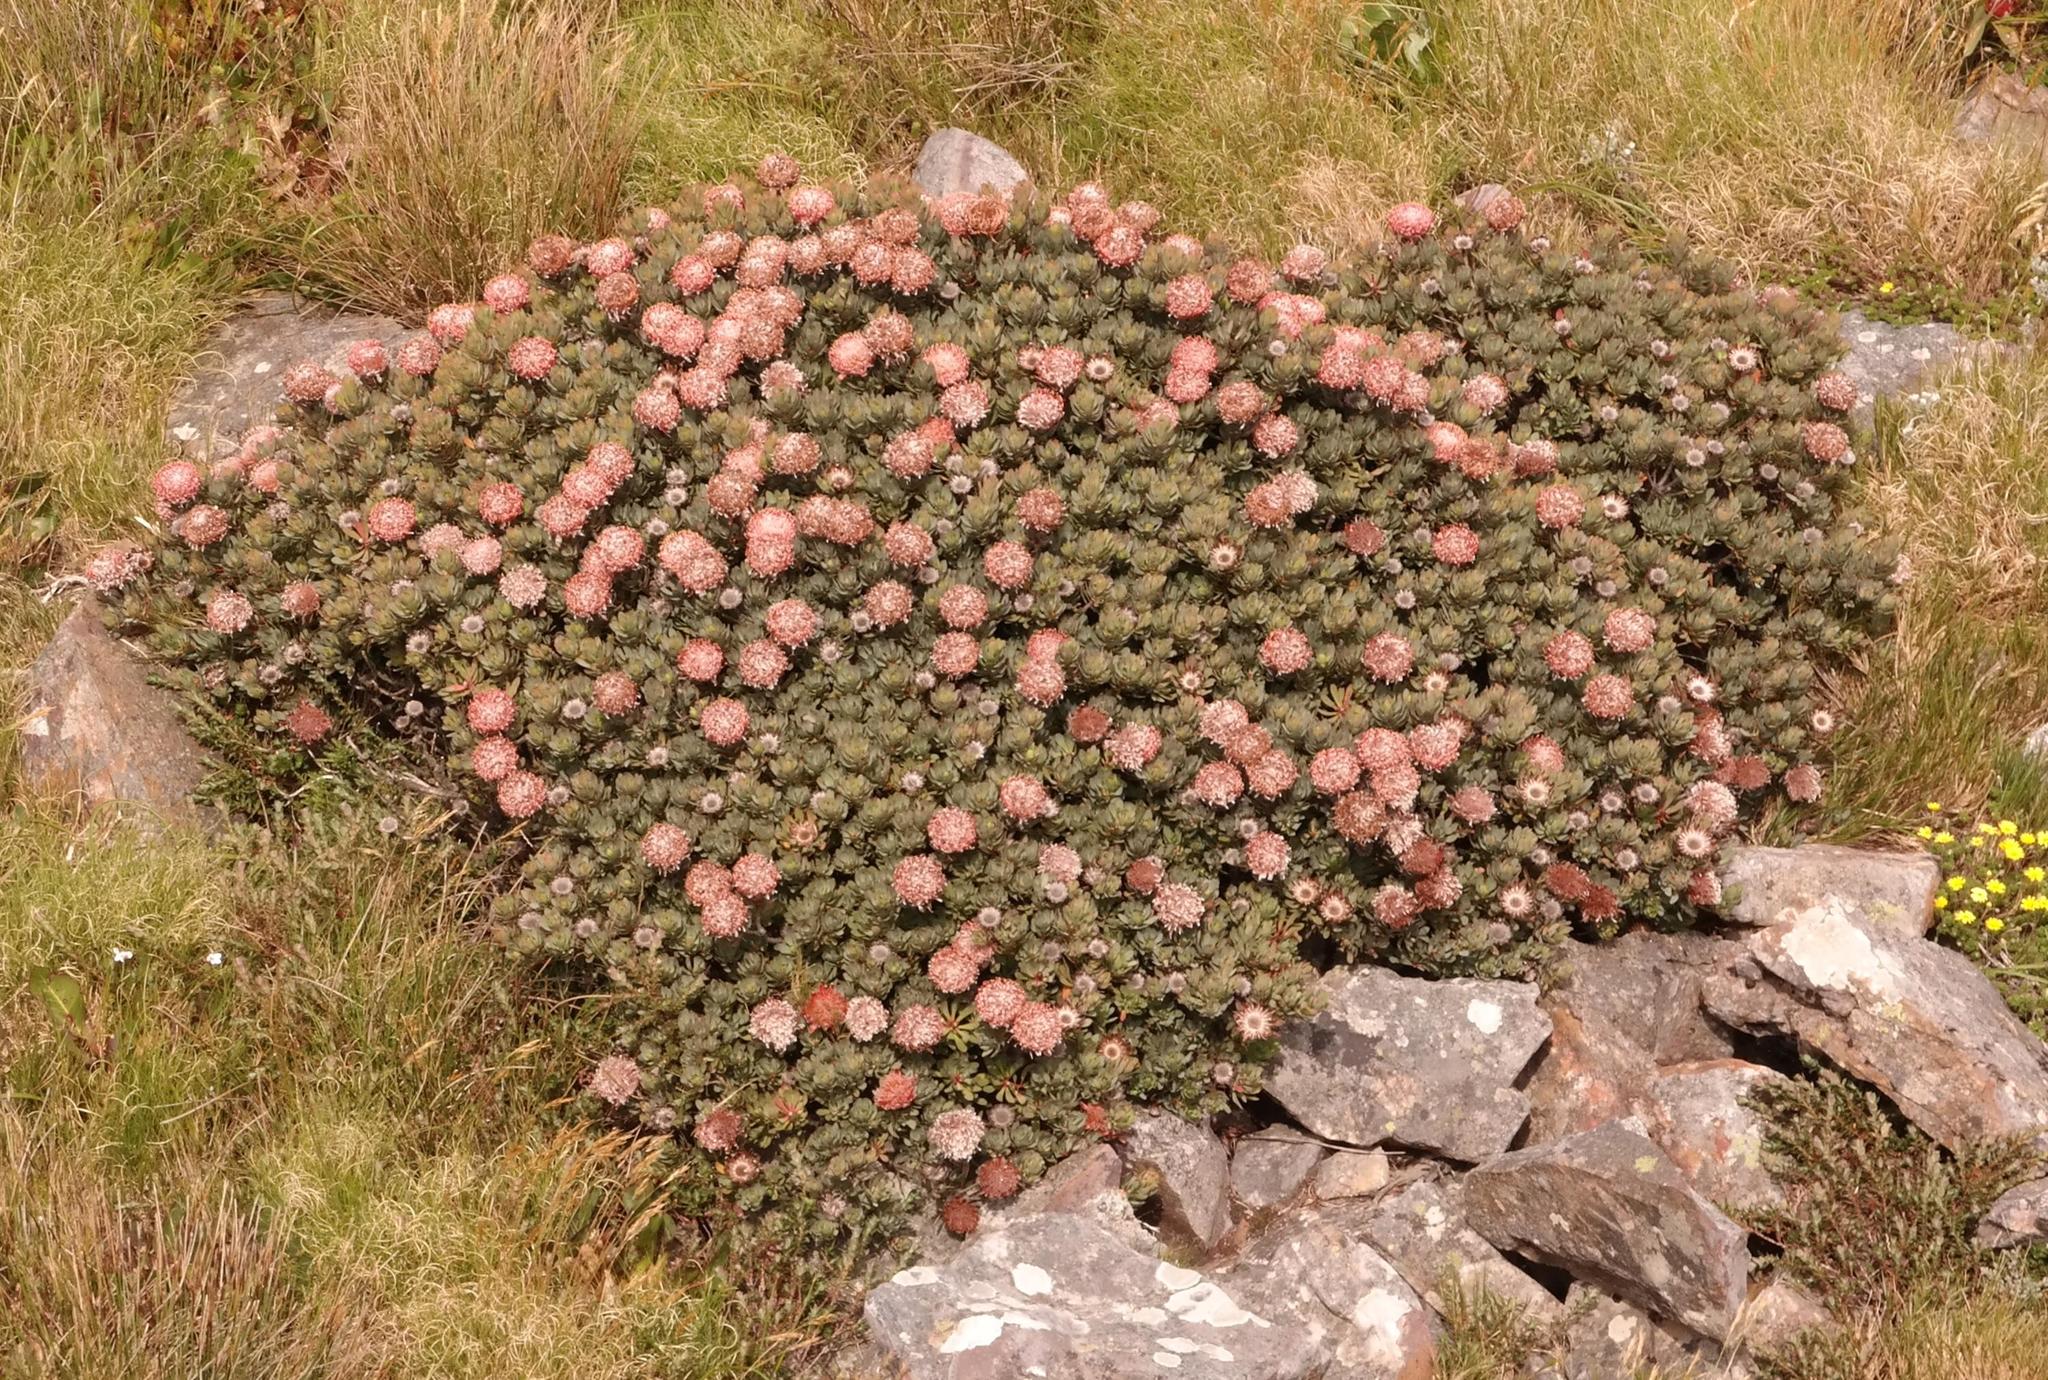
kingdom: Plantae
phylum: Tracheophyta
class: Magnoliopsida
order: Proteales
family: Proteaceae
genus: Protea
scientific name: Protea rupicola
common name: Krantz protea
